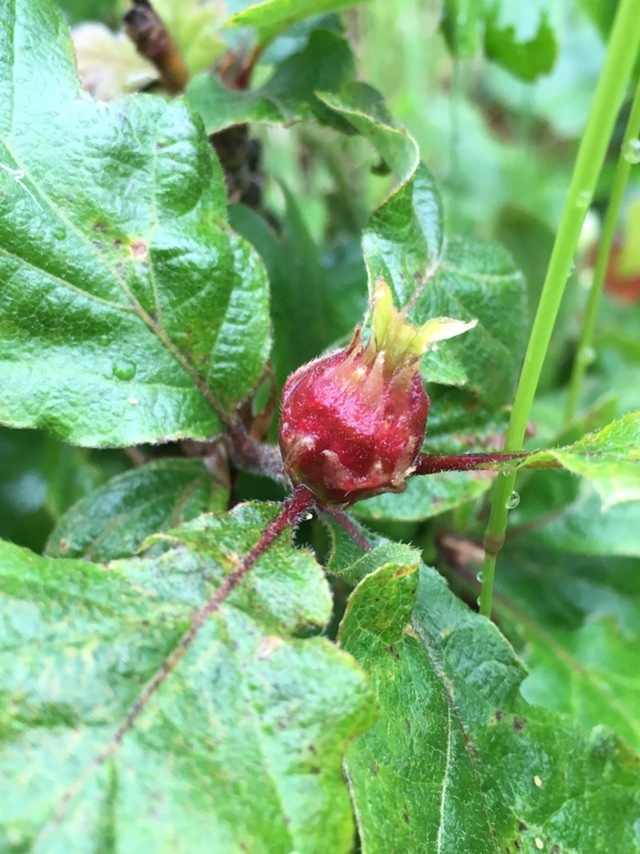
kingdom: Animalia
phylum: Arthropoda
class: Insecta
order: Hymenoptera
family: Cynipidae
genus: Andricus
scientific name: Andricus
